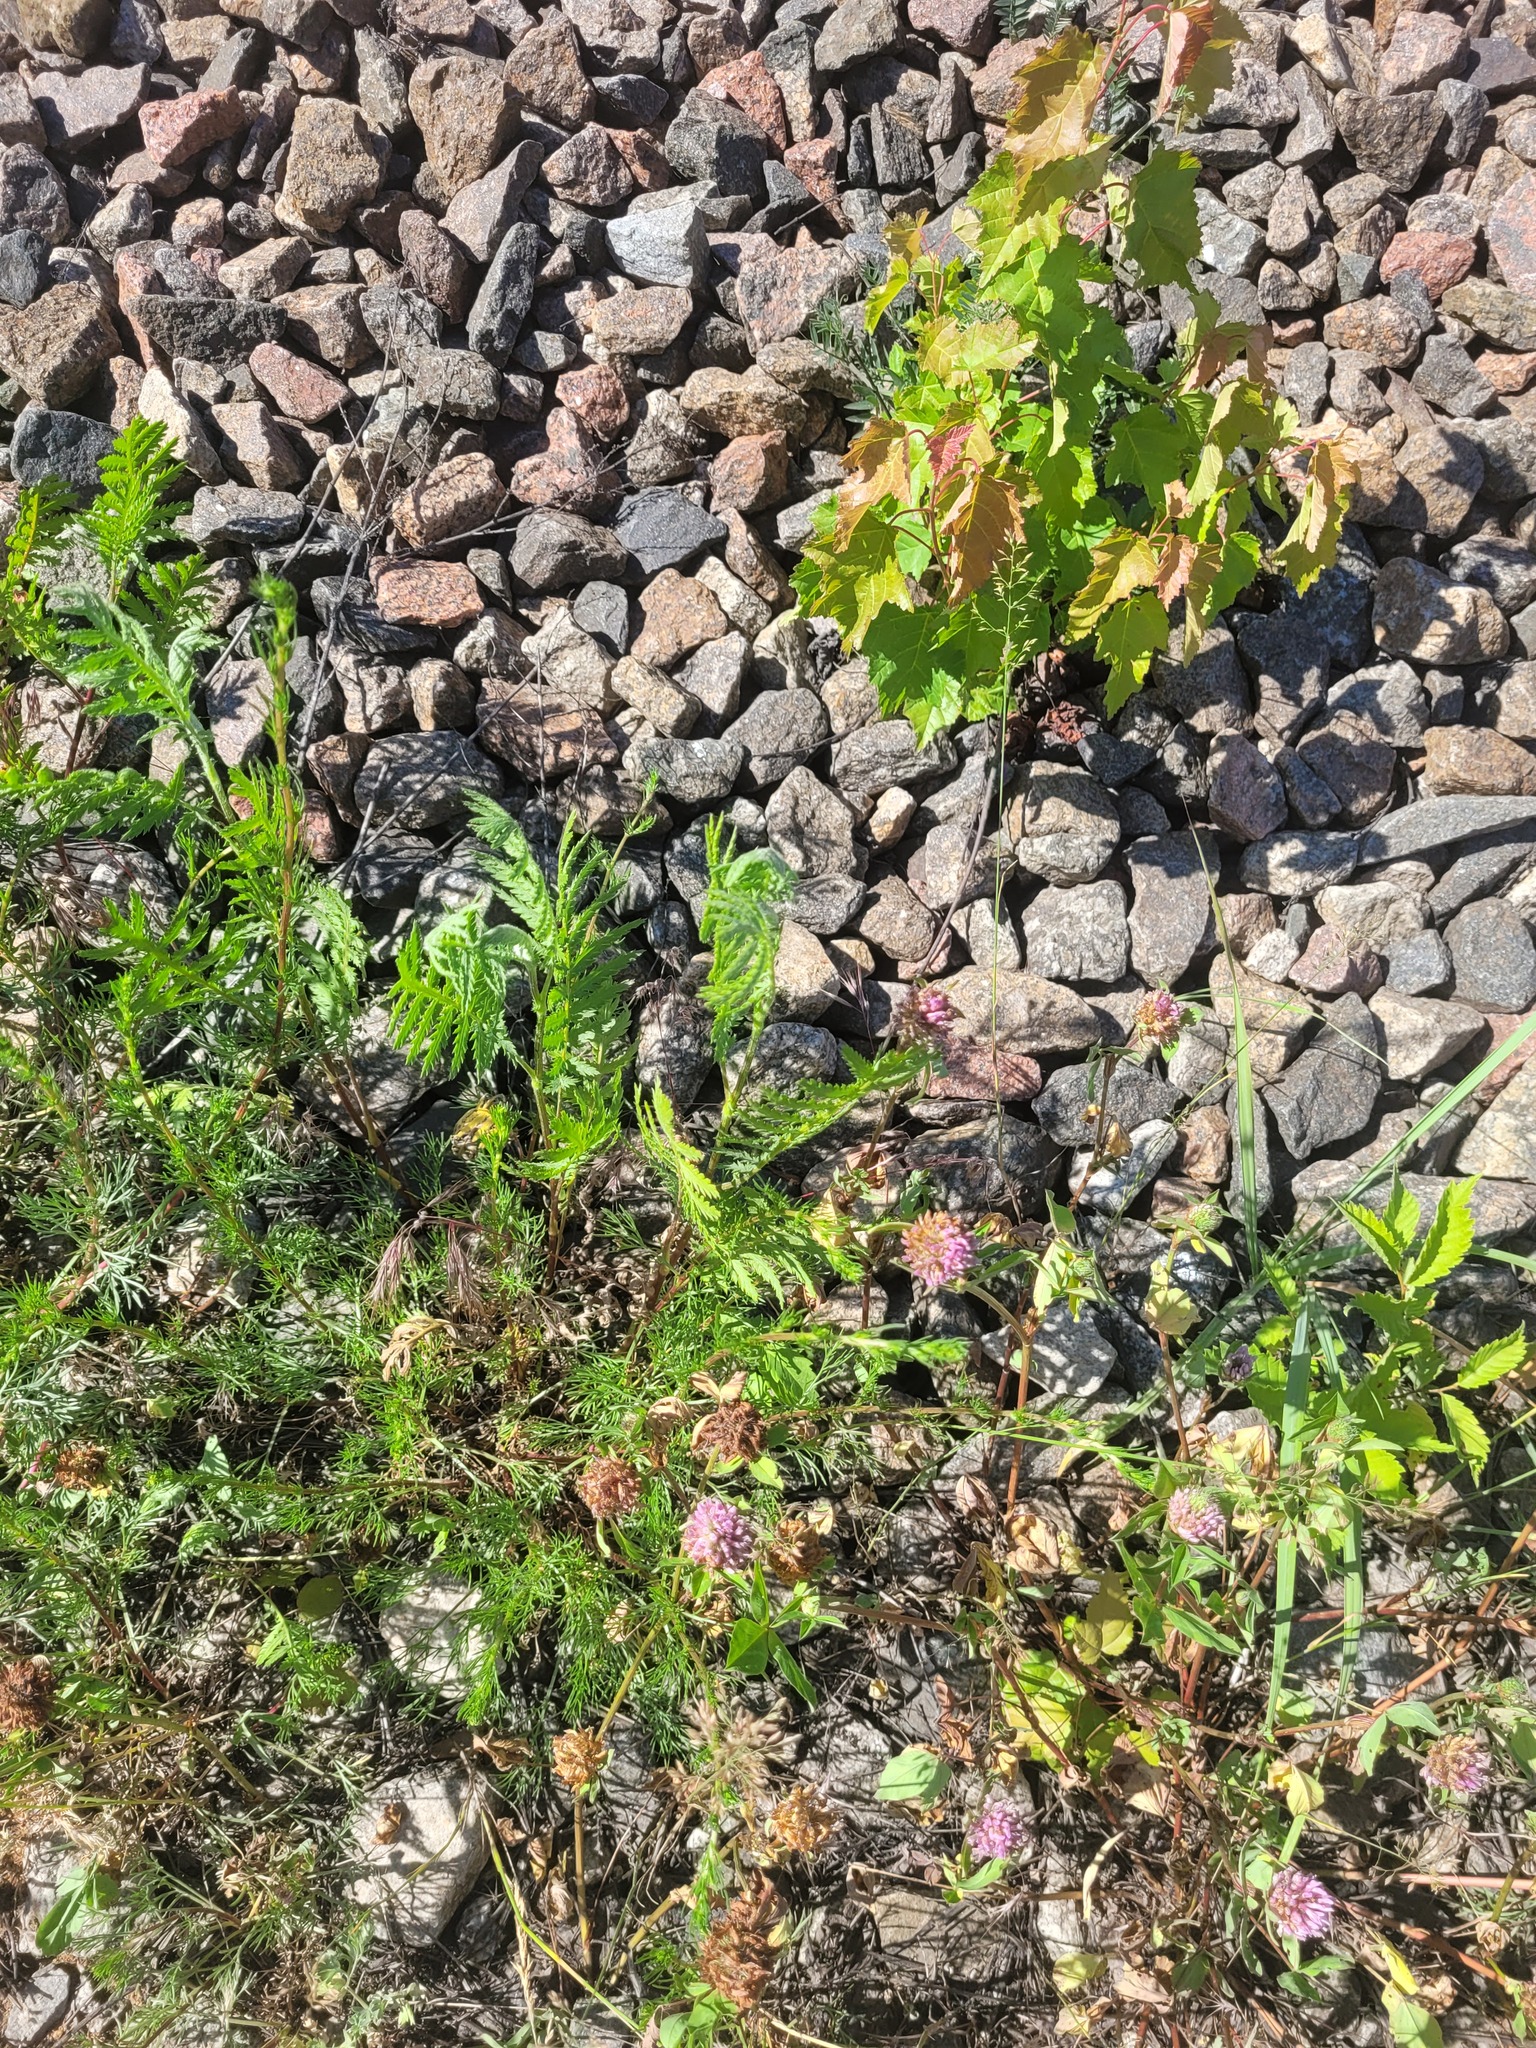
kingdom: Plantae
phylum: Tracheophyta
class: Magnoliopsida
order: Asterales
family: Asteraceae
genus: Tanacetum
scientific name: Tanacetum vulgare
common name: Common tansy
